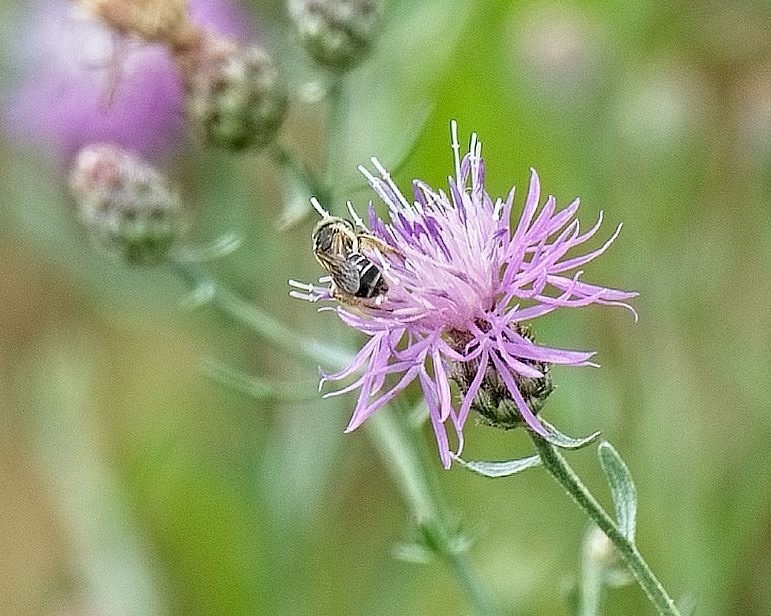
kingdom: Animalia
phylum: Arthropoda
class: Insecta
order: Hymenoptera
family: Halictidae
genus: Halictus
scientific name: Halictus ligatus
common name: Ligated furrow bee
